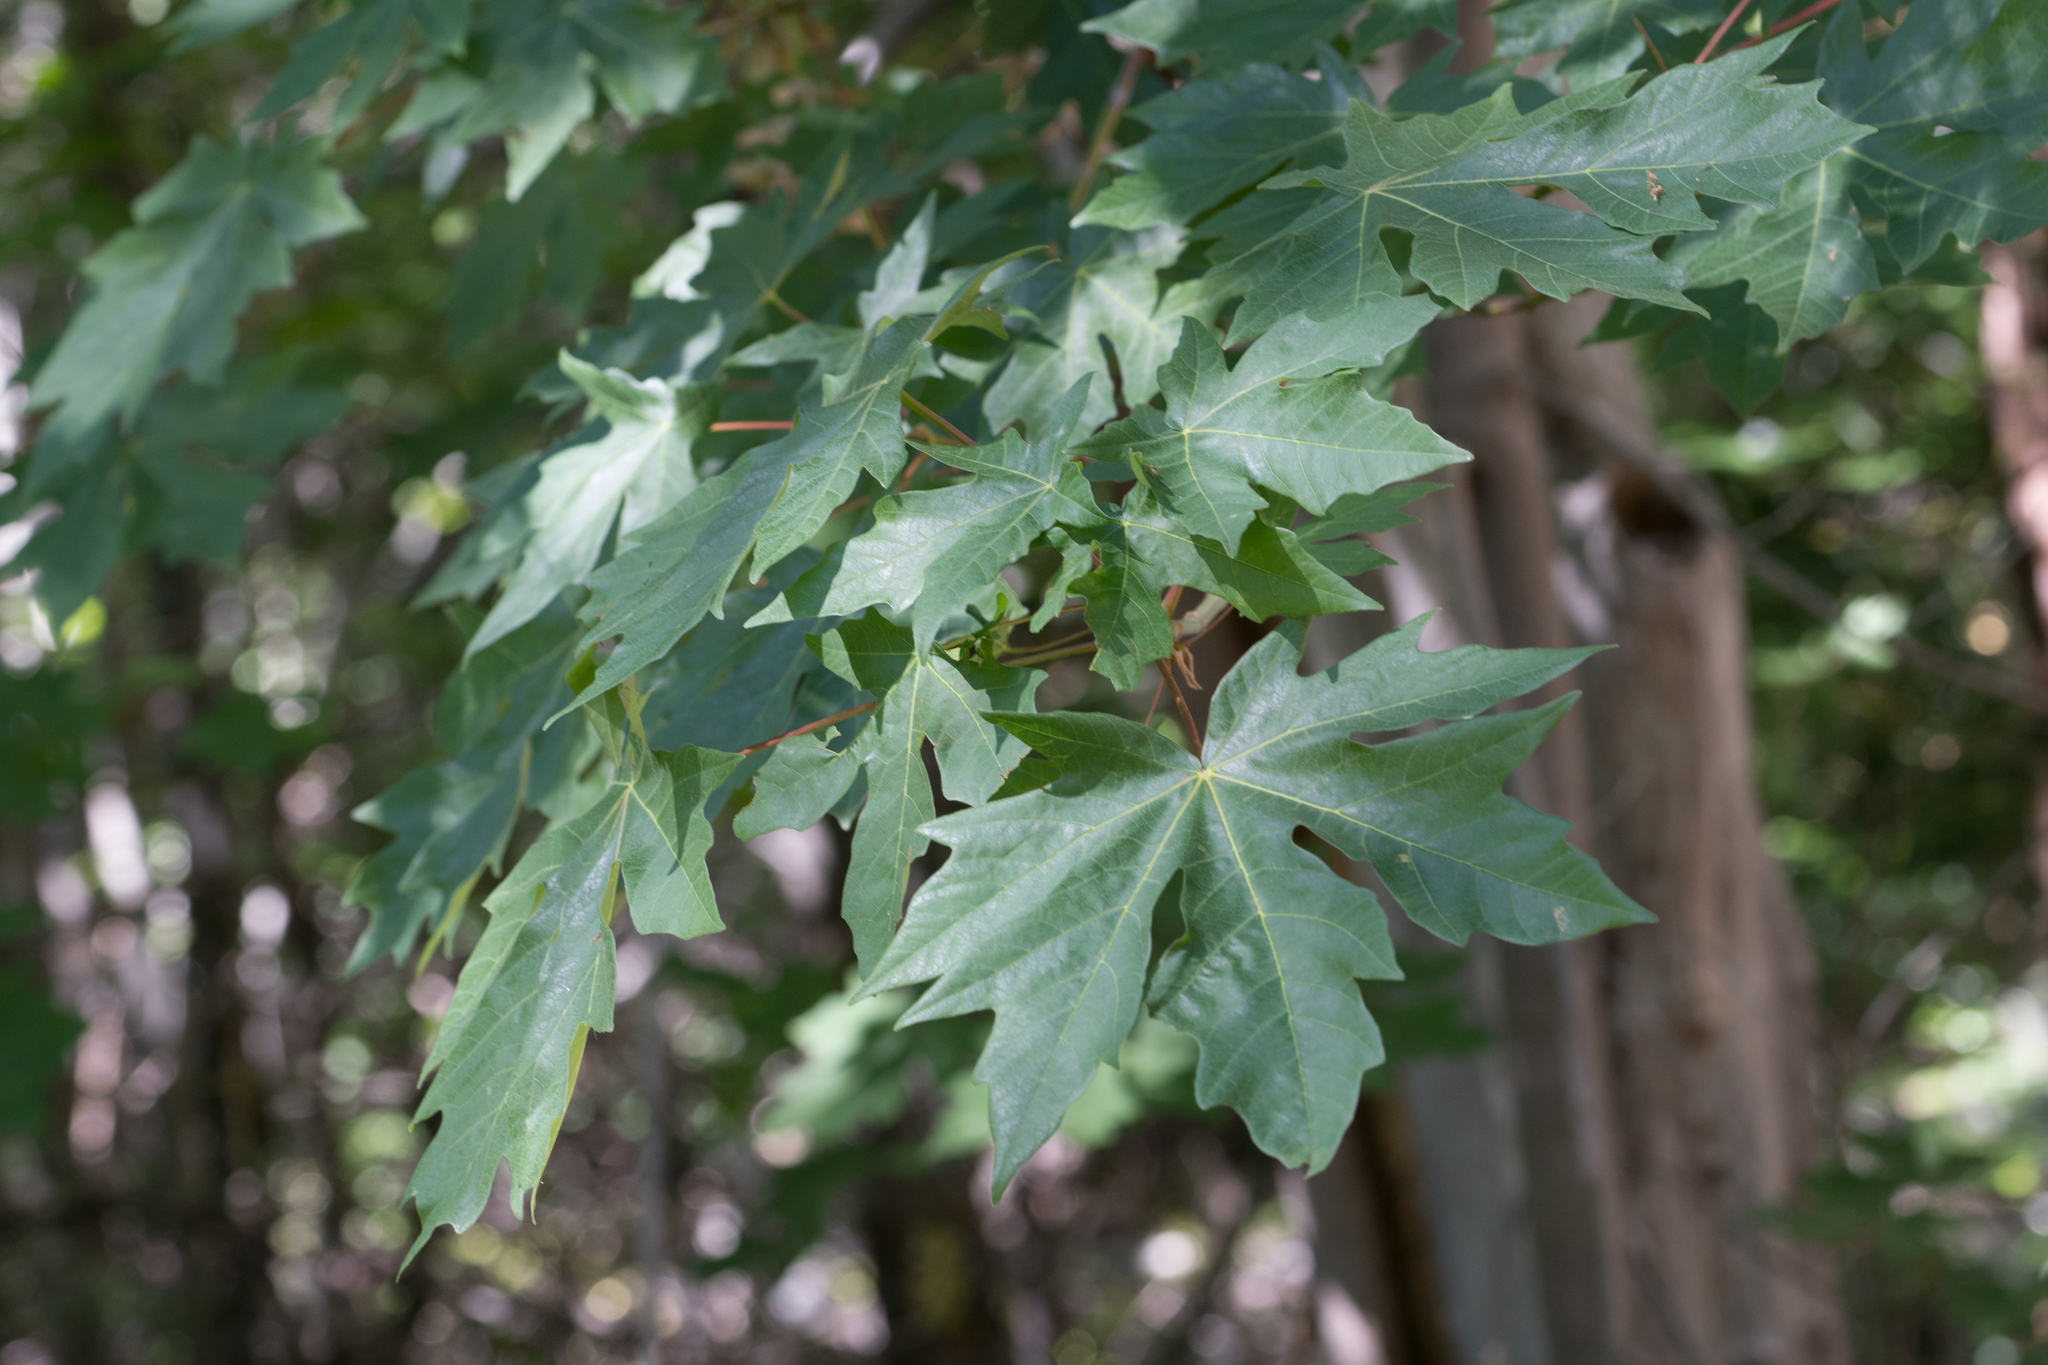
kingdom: Plantae
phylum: Tracheophyta
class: Magnoliopsida
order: Sapindales
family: Sapindaceae
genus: Acer
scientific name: Acer macrophyllum
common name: Oregon maple
